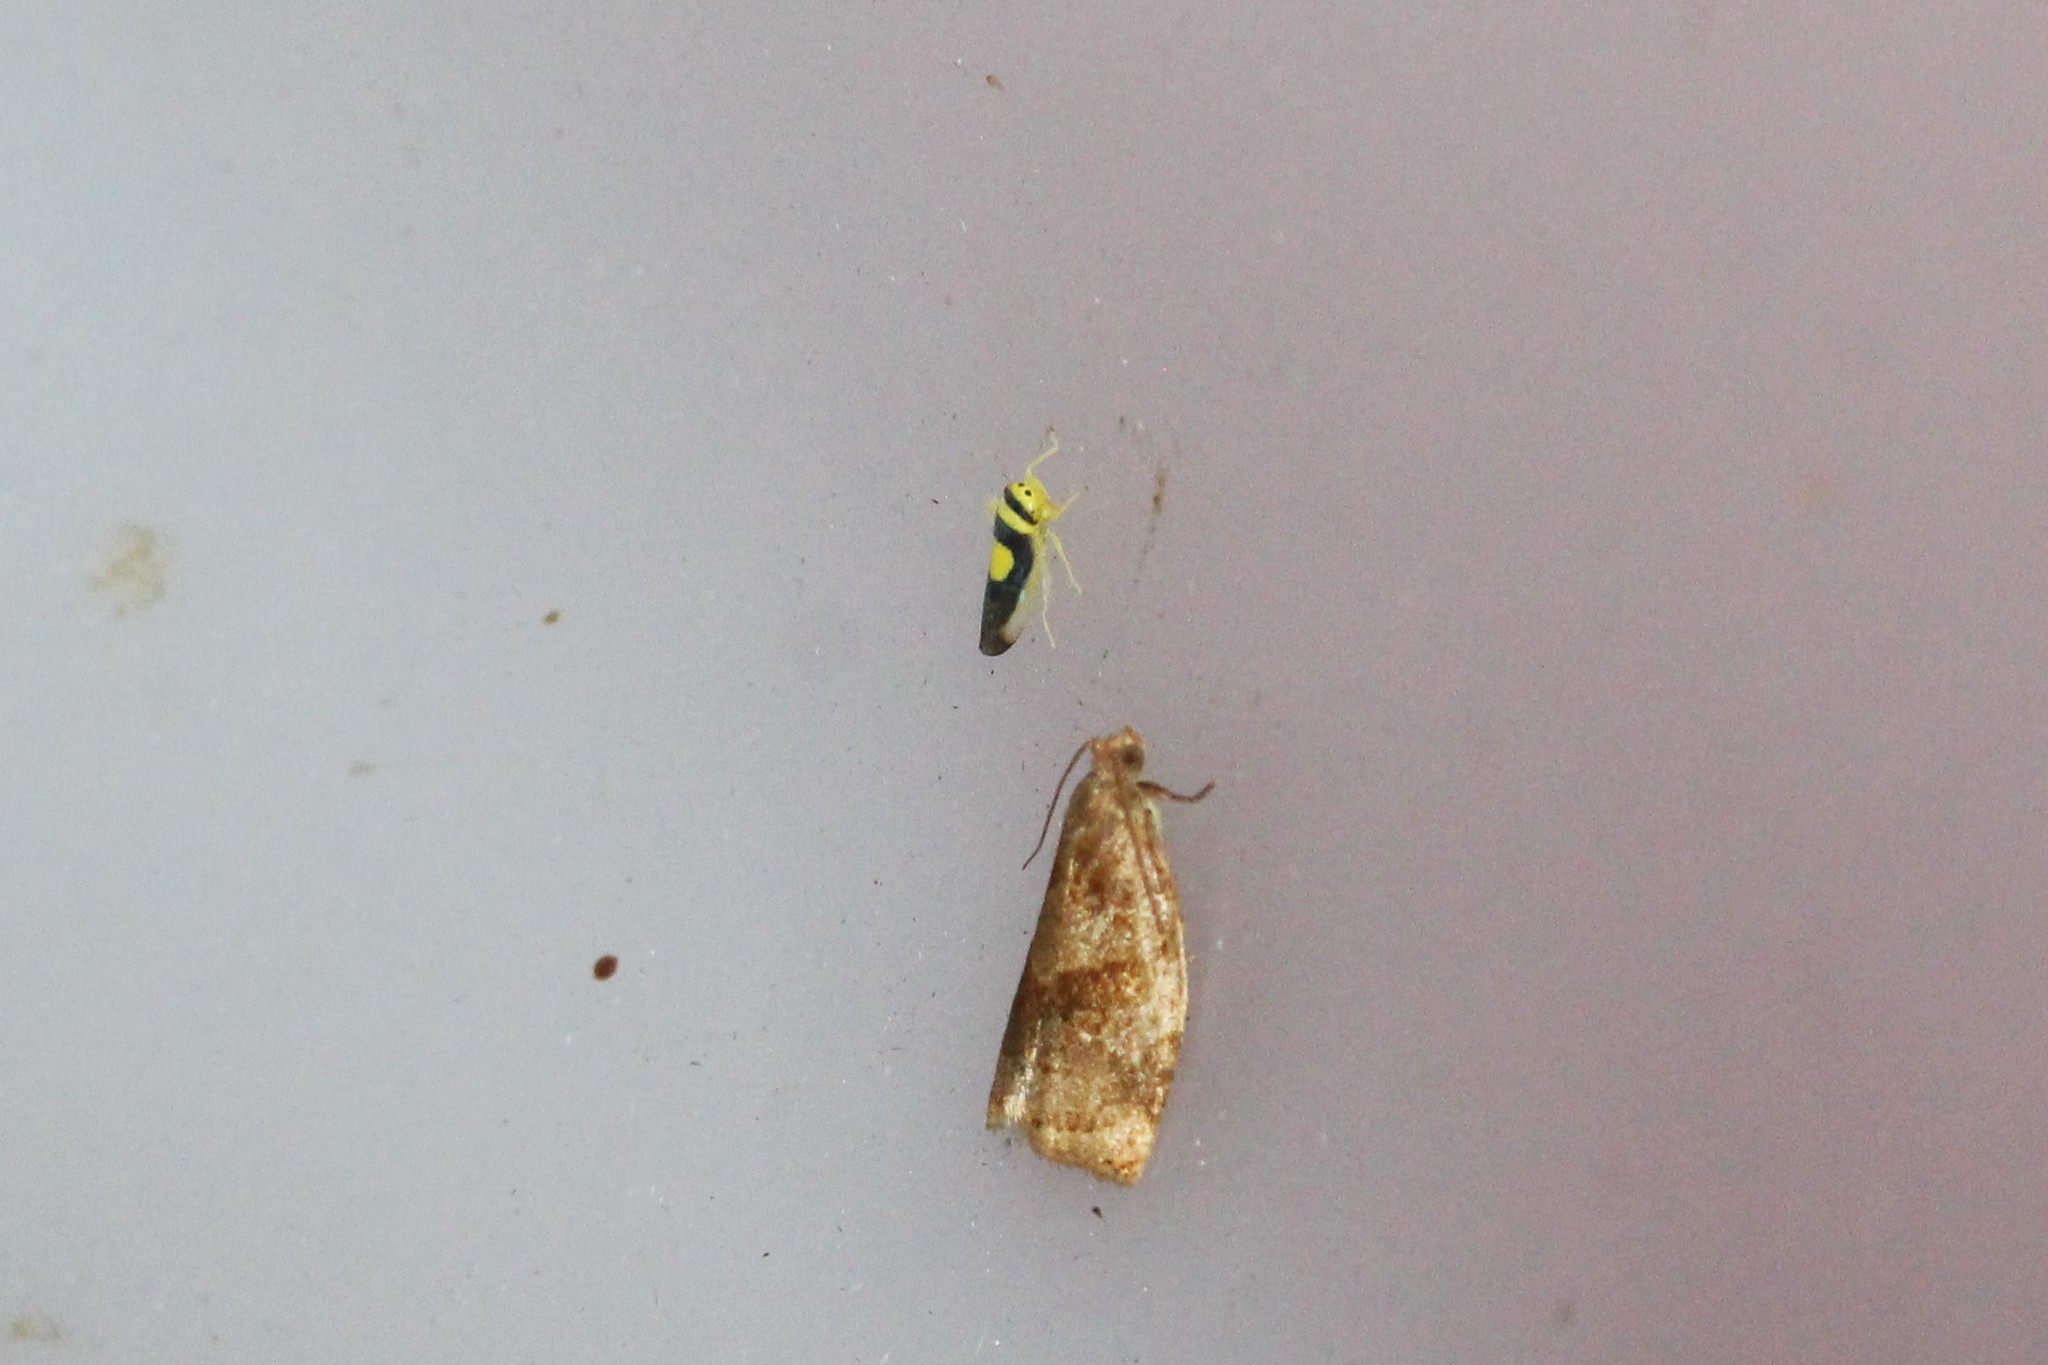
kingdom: Animalia
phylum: Arthropoda
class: Insecta
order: Hemiptera
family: Cicadellidae
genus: Colladonus
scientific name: Colladonus clitellarius
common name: The saddleback leafhopper
